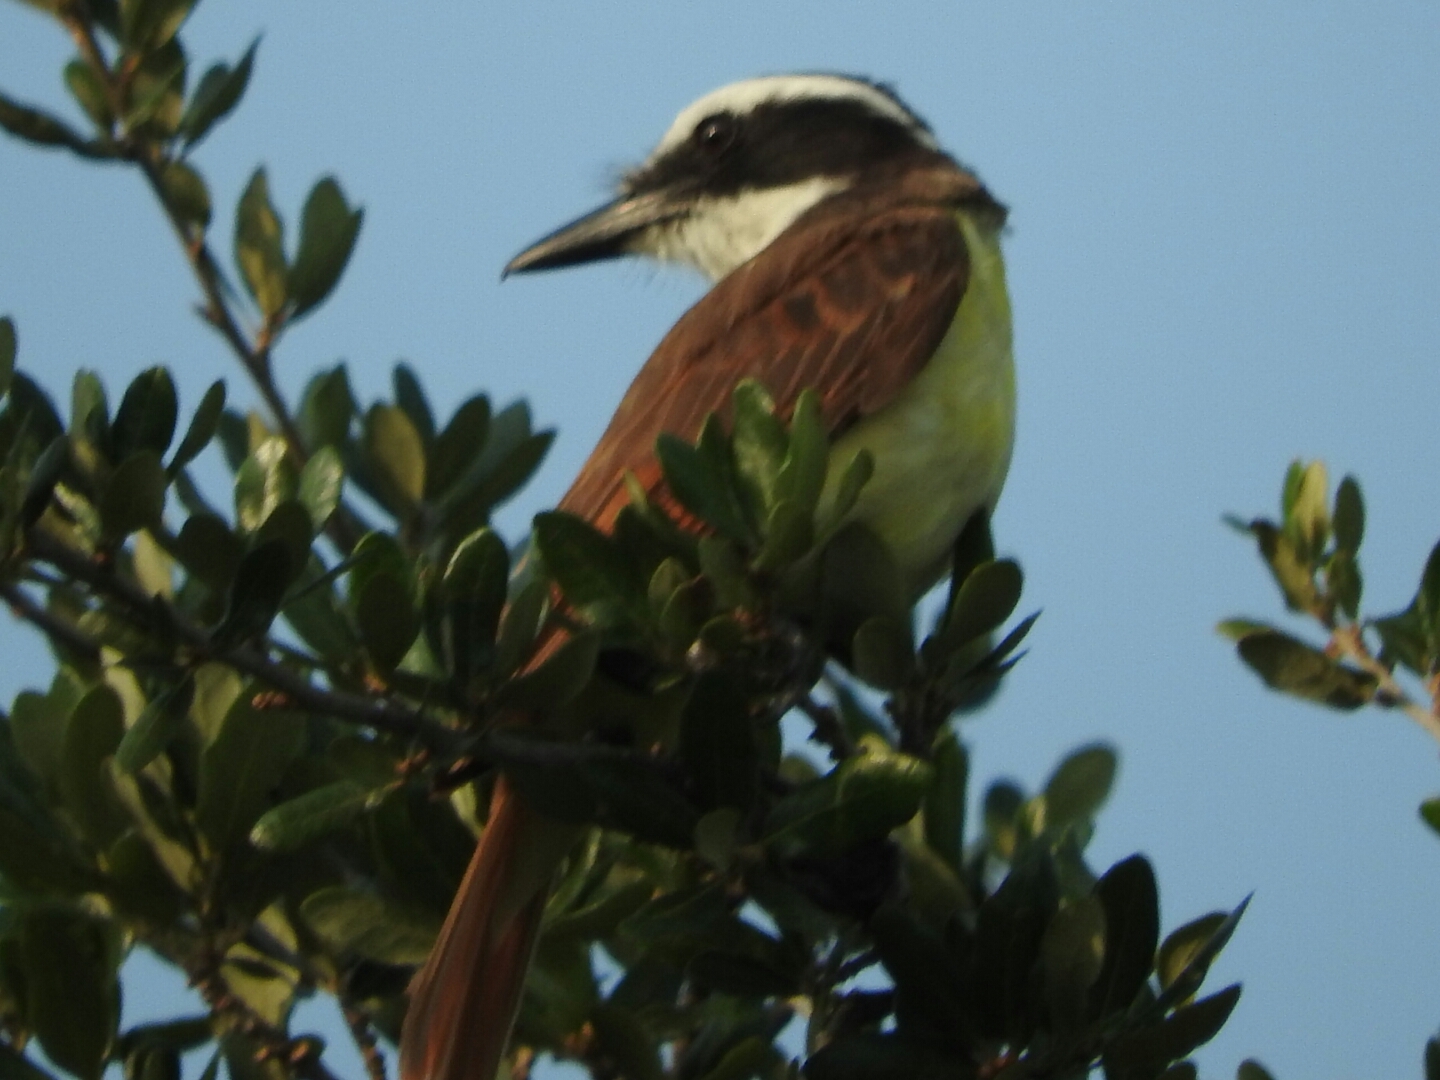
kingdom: Animalia
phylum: Chordata
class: Aves
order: Passeriformes
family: Tyrannidae
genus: Pitangus
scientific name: Pitangus sulphuratus
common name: Great kiskadee
